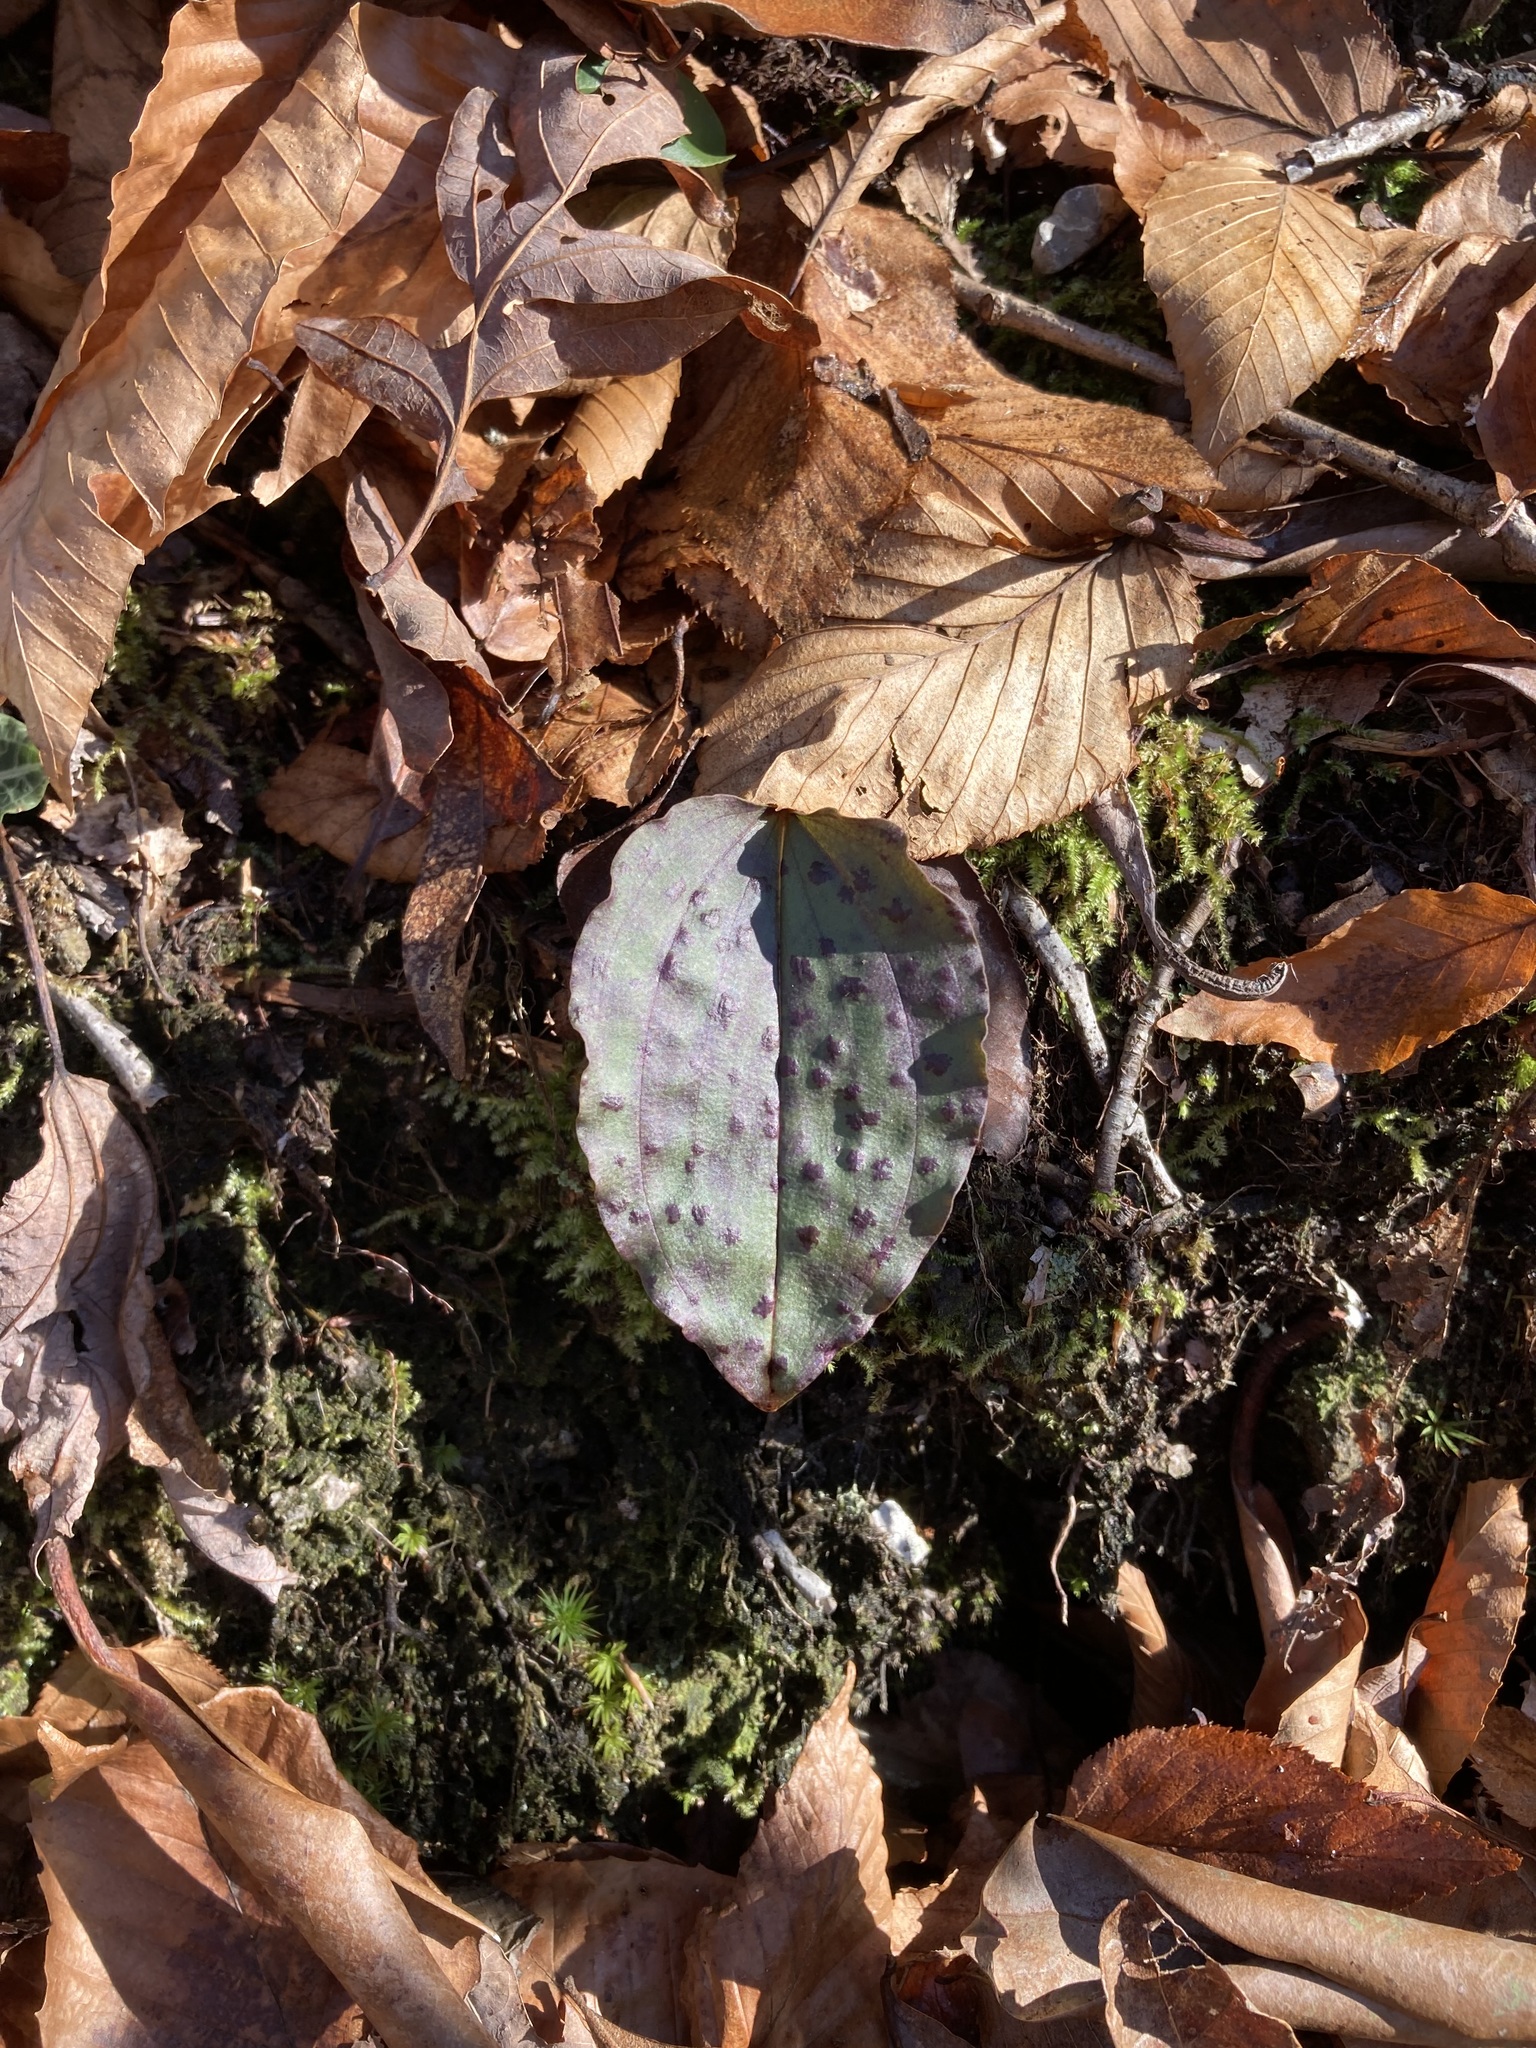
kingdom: Plantae
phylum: Tracheophyta
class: Liliopsida
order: Asparagales
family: Orchidaceae
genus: Tipularia
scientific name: Tipularia discolor
